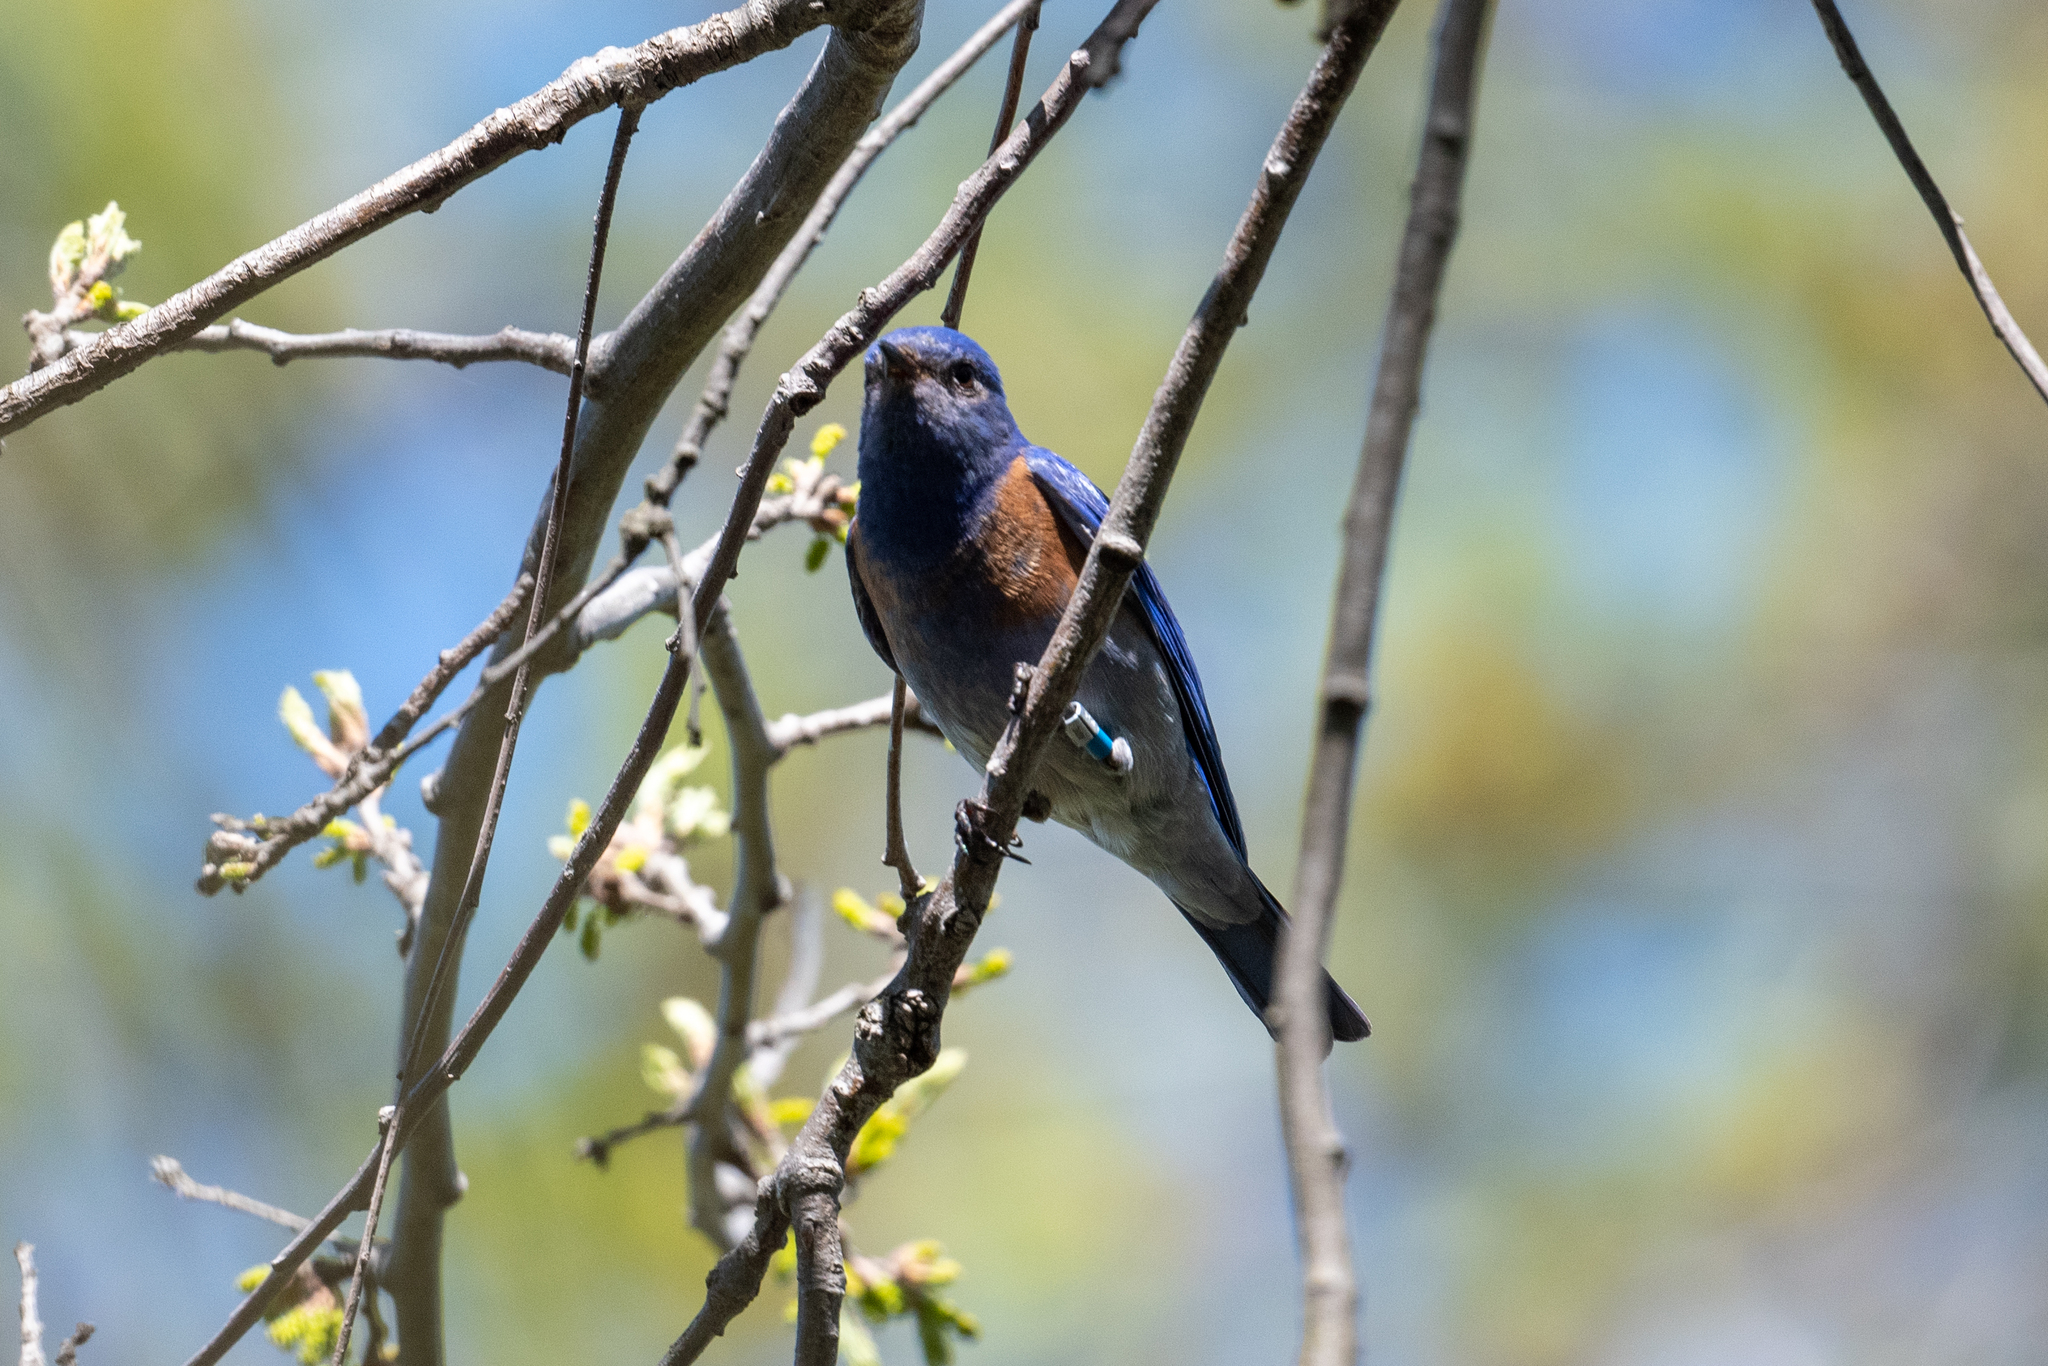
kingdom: Animalia
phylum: Chordata
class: Aves
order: Passeriformes
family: Turdidae
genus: Sialia
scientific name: Sialia mexicana
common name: Western bluebird
